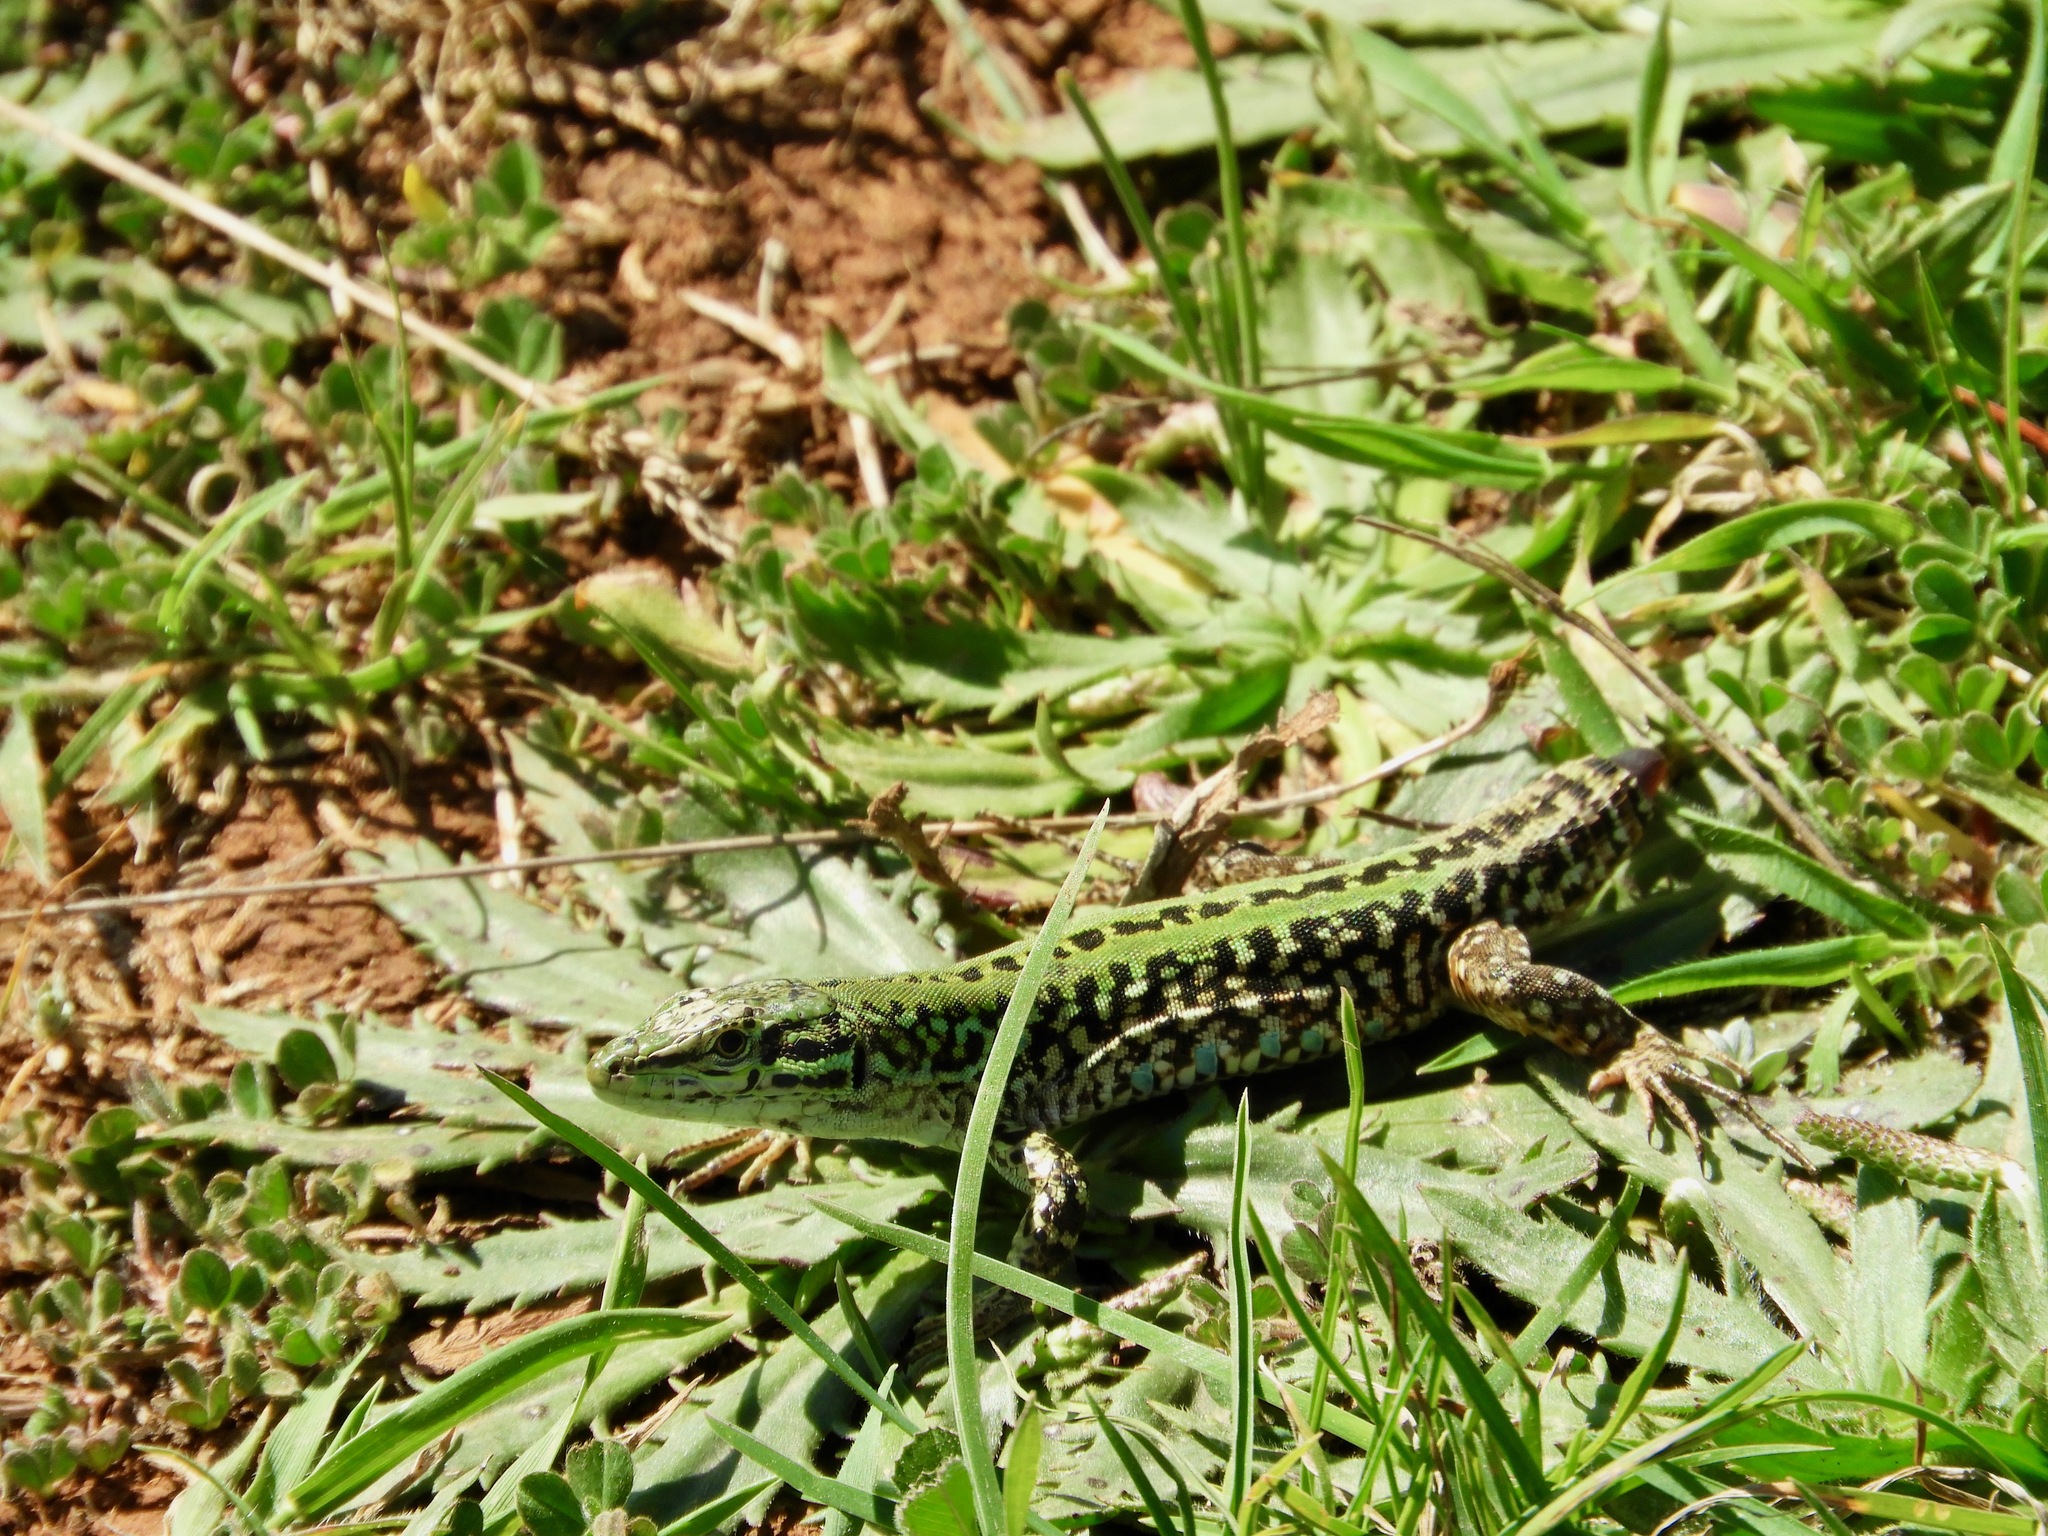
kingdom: Animalia
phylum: Chordata
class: Squamata
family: Lacertidae
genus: Podarcis
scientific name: Podarcis siculus
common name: Italian wall lizard
